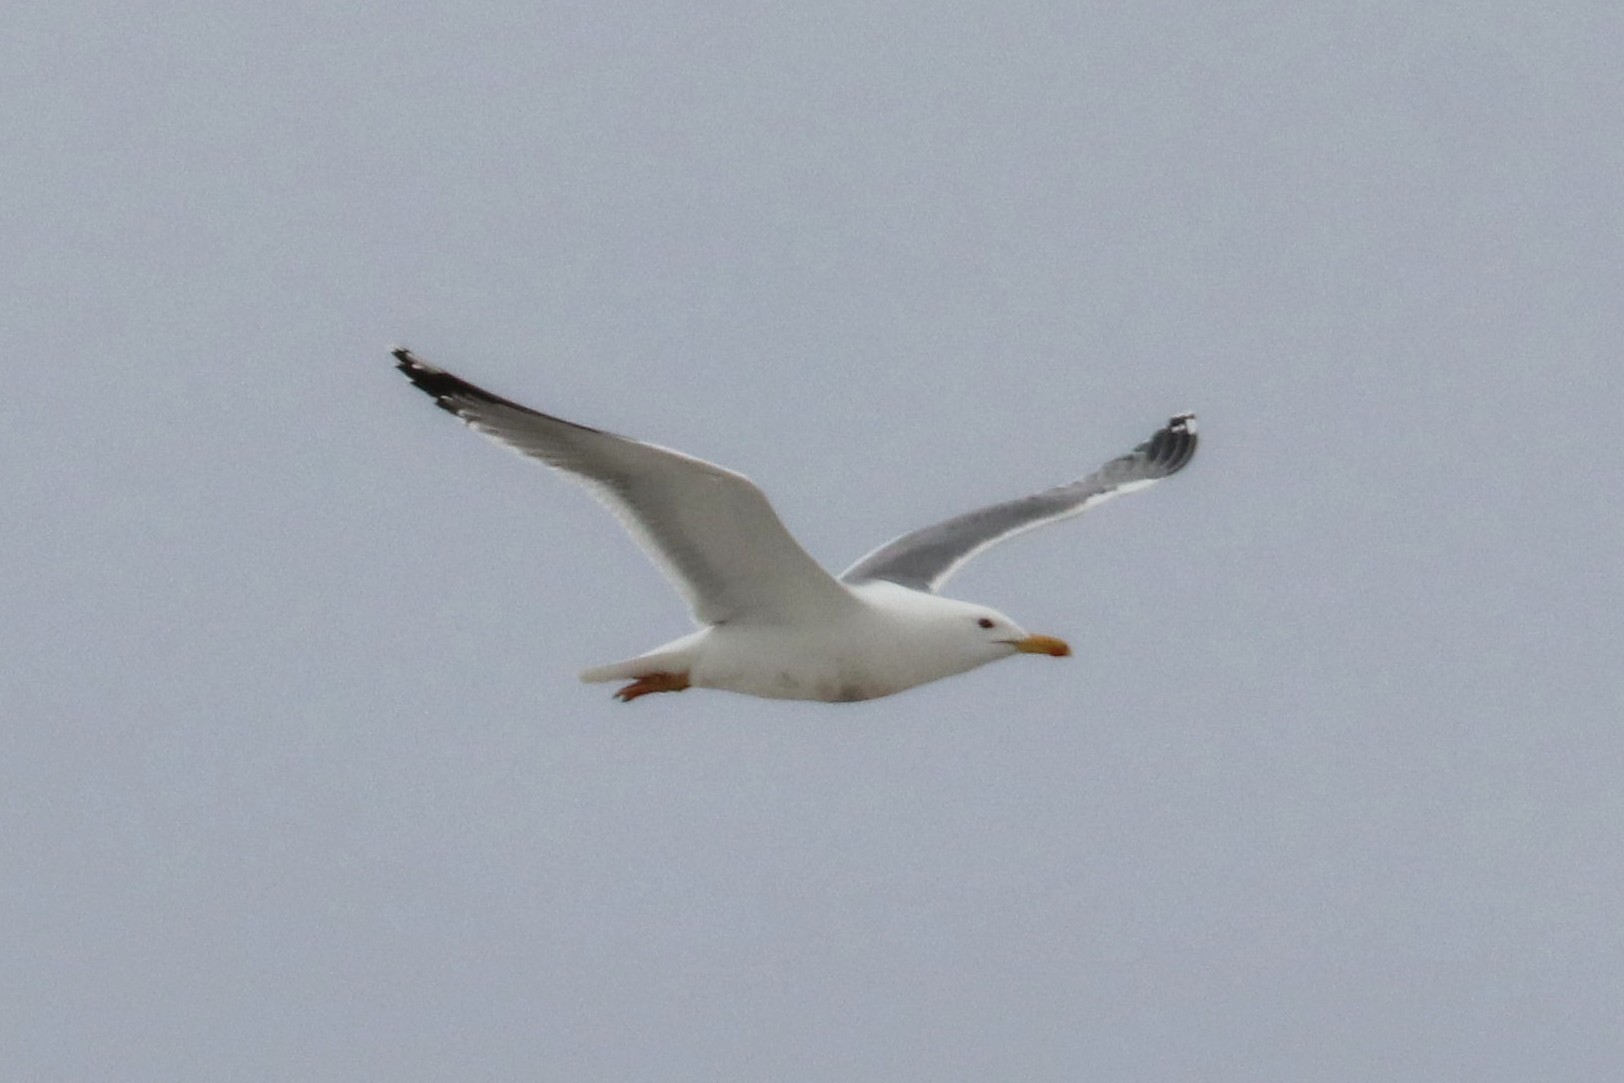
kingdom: Animalia
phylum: Chordata
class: Aves
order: Charadriiformes
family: Laridae
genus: Larus
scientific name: Larus cachinnans
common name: Caspian gull
